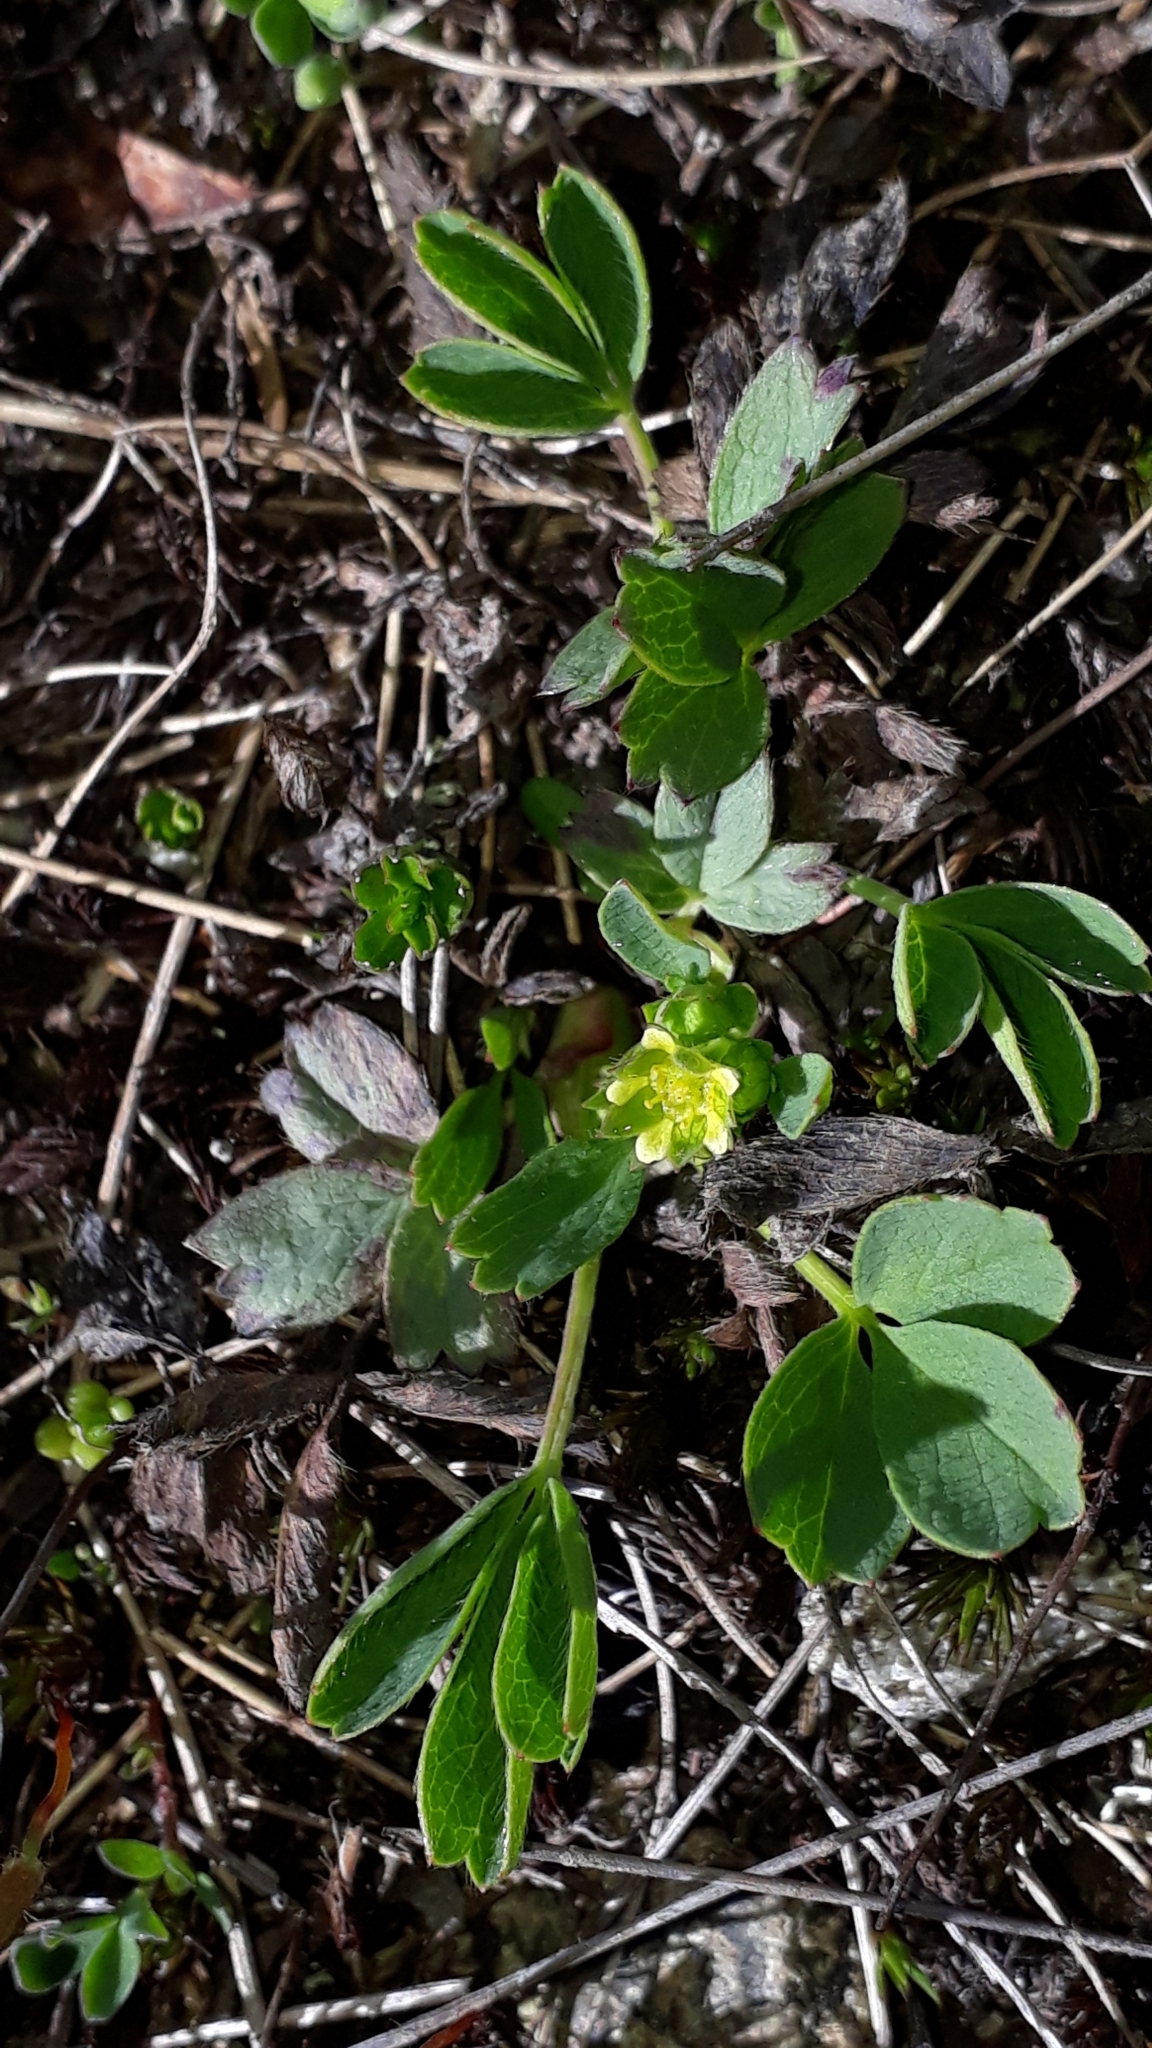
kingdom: Plantae
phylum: Tracheophyta
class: Magnoliopsida
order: Rosales
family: Rosaceae
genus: Sibbaldia
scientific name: Sibbaldia procumbens
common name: Creeping sibbaldia
